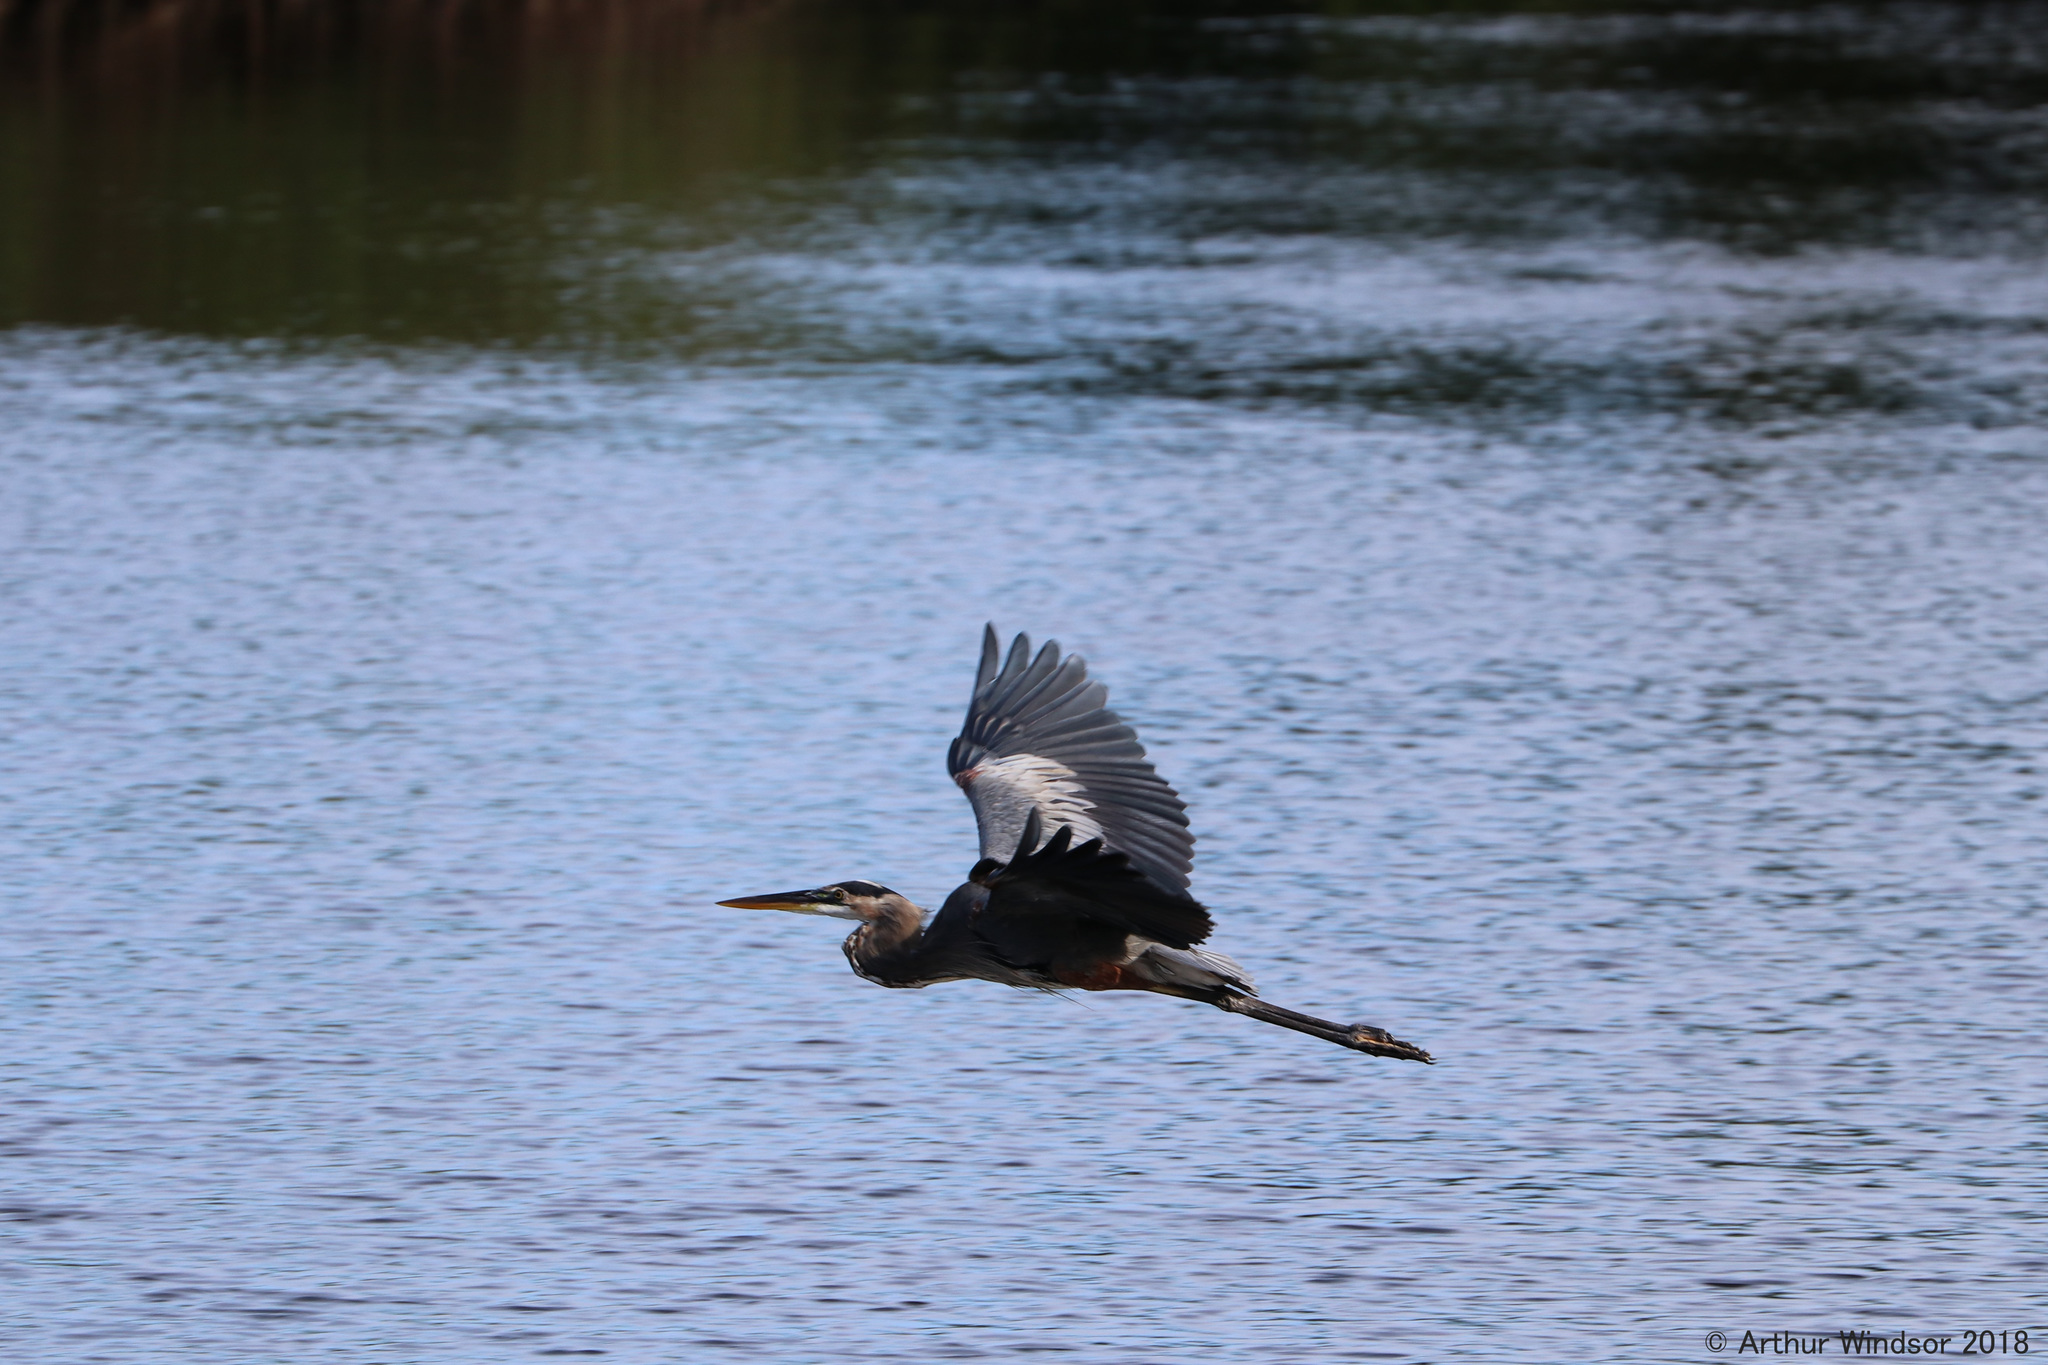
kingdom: Animalia
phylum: Chordata
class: Aves
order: Pelecaniformes
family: Ardeidae
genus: Ardea
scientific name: Ardea herodias
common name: Great blue heron
